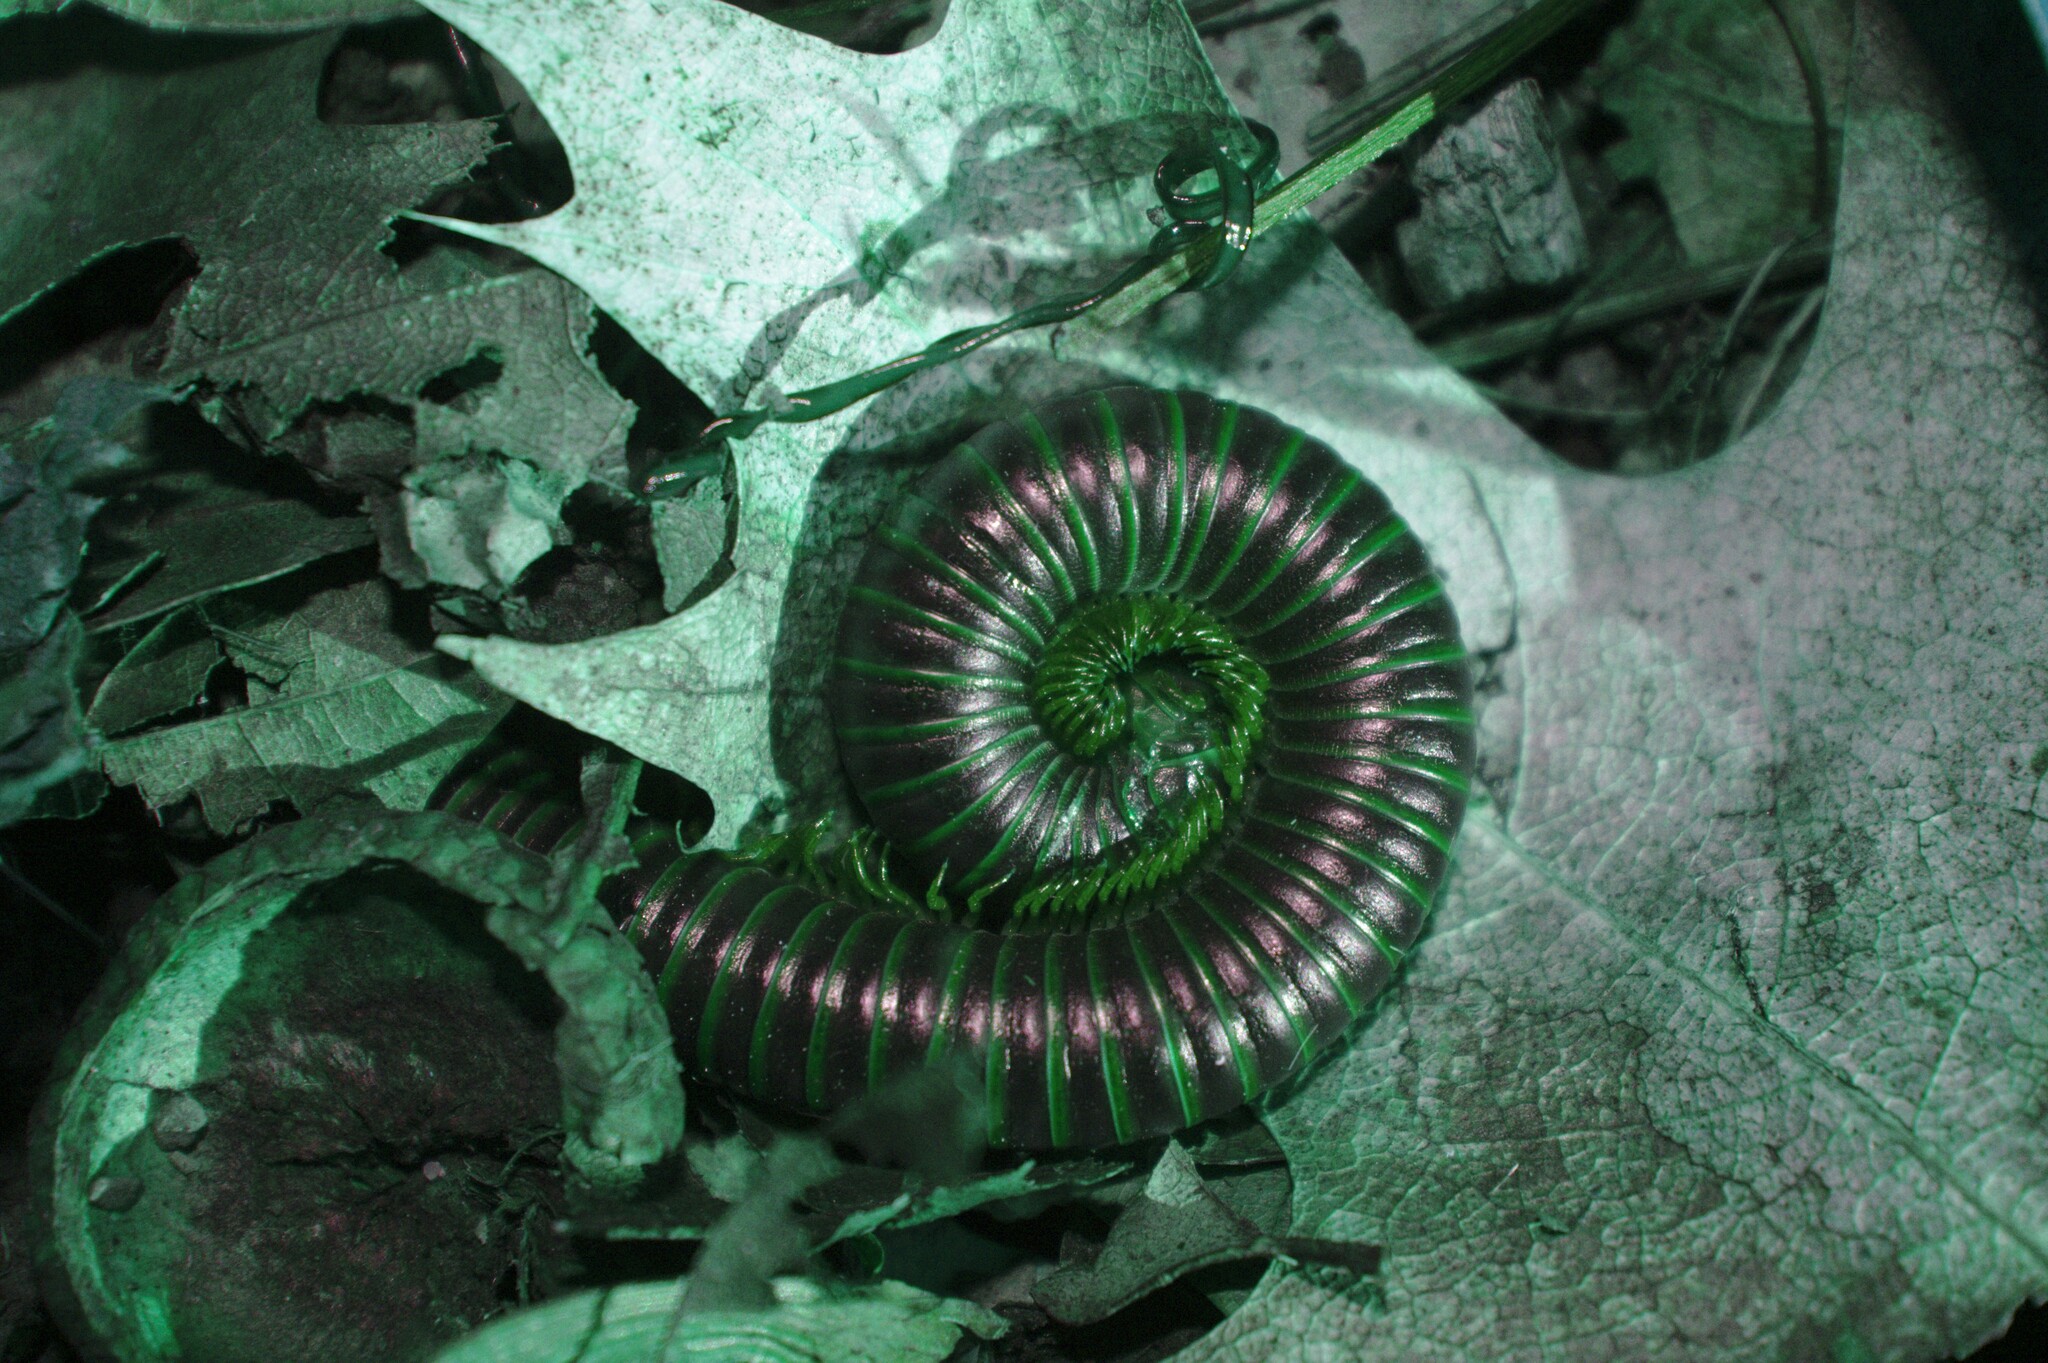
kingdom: Animalia
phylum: Arthropoda
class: Diplopoda
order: Spirobolida
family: Spirobolidae
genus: Narceus
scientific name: Narceus americanus
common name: American giant millipede
